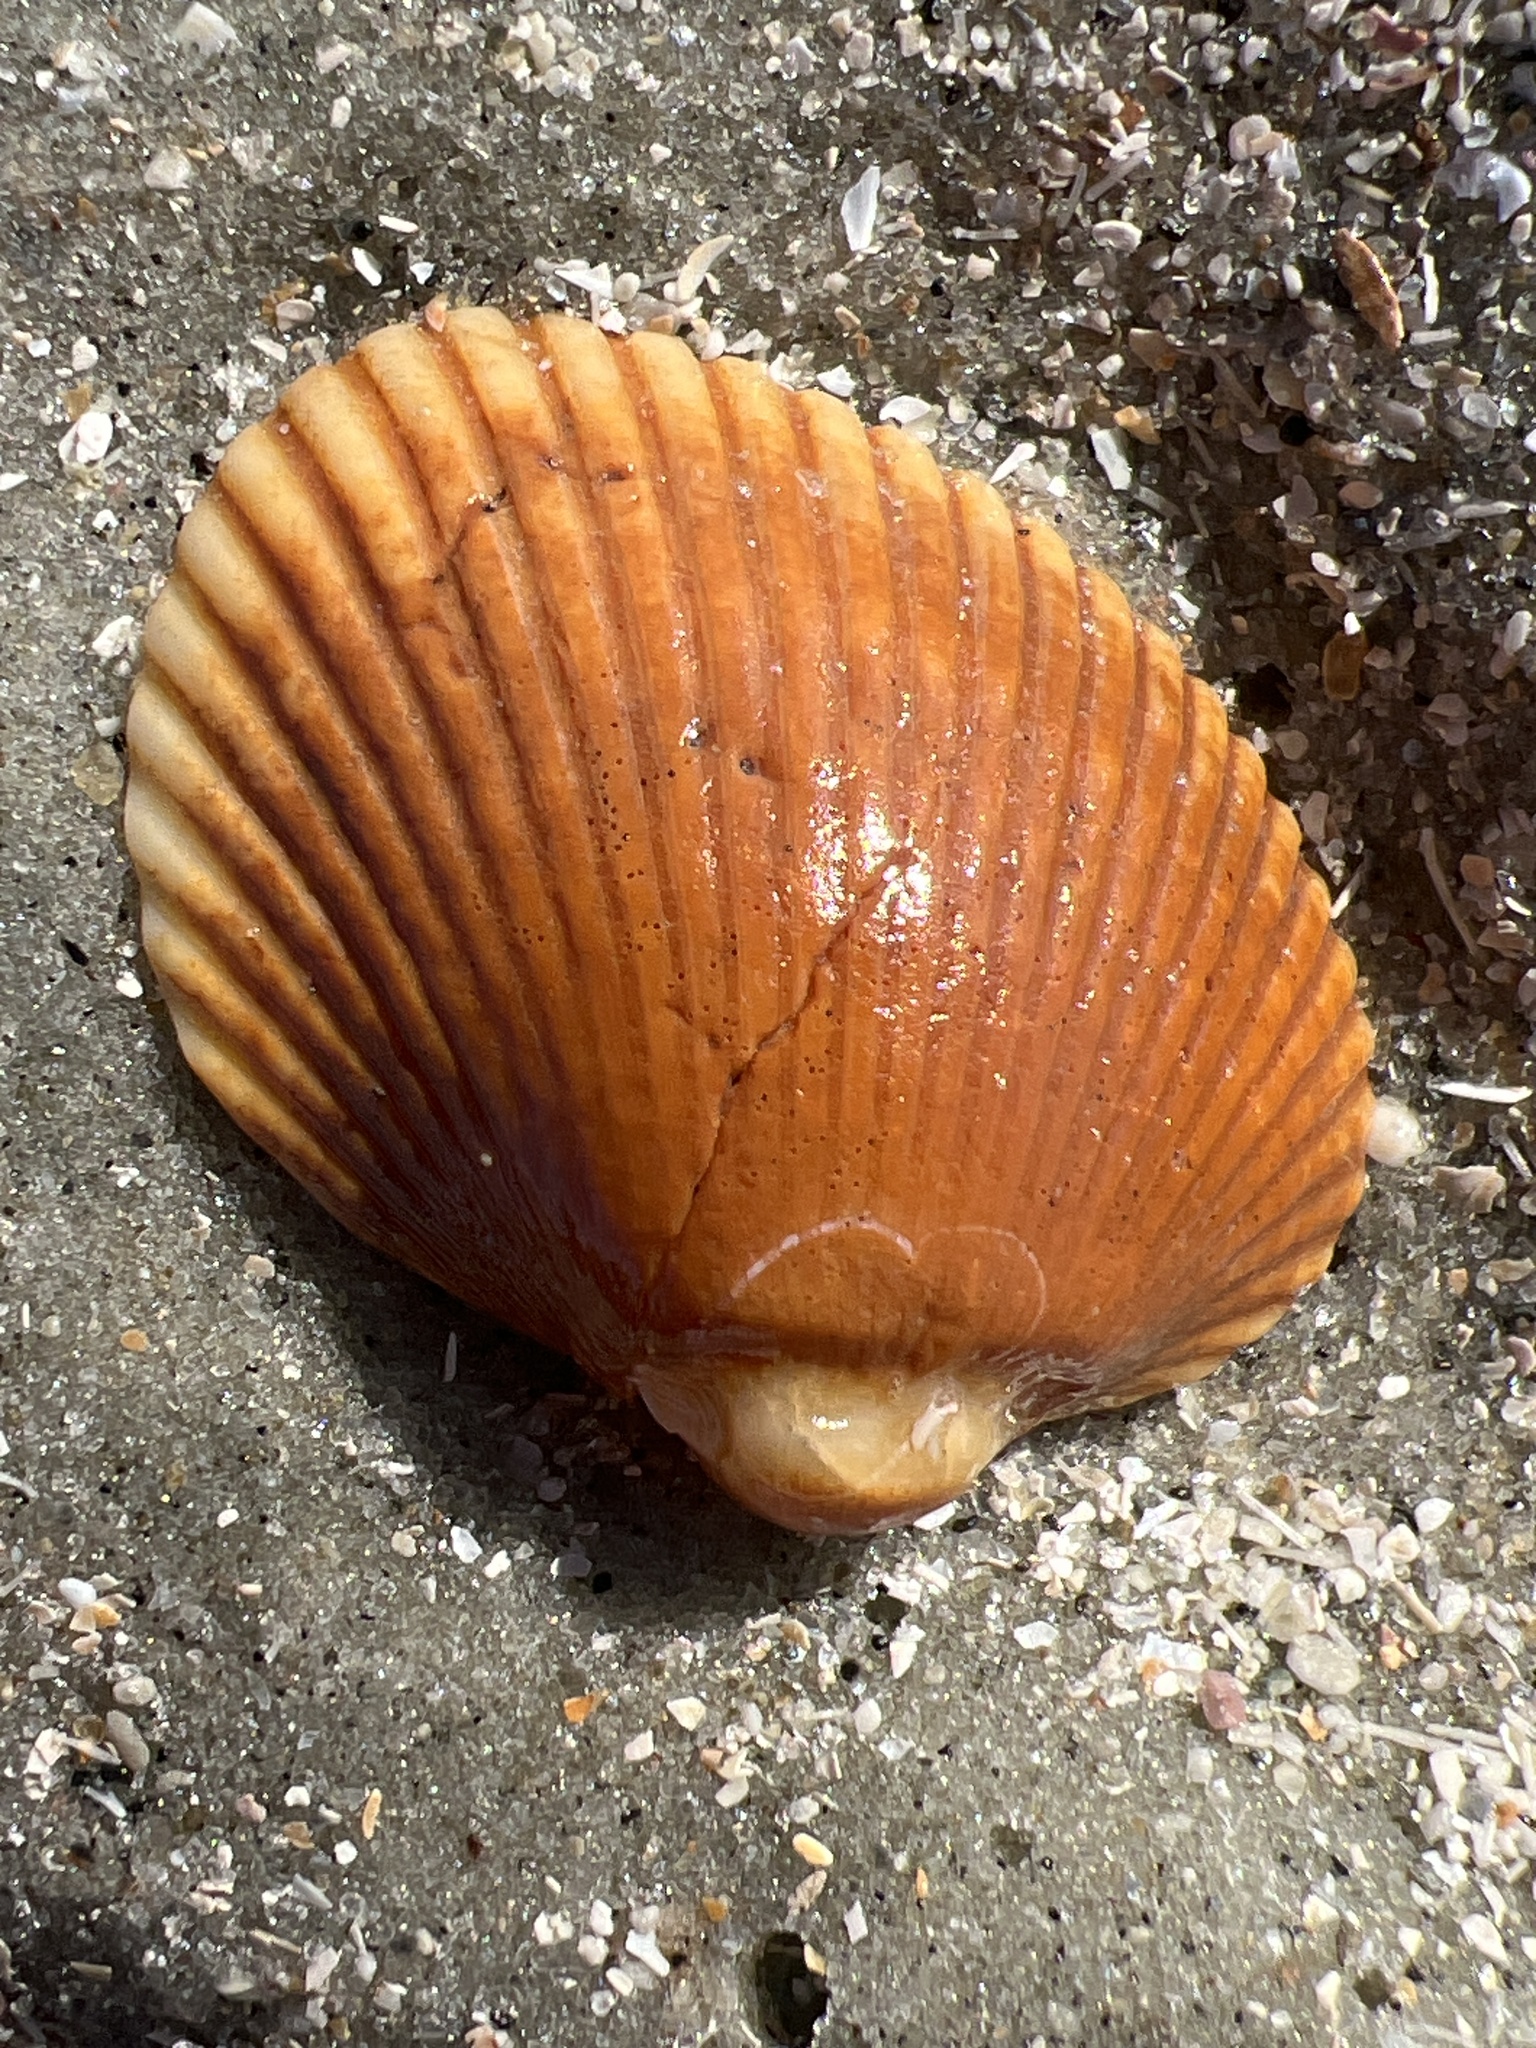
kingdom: Animalia
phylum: Mollusca
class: Bivalvia
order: Arcida
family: Arcidae
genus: Lunarca
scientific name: Lunarca ovalis
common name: Blood ark
